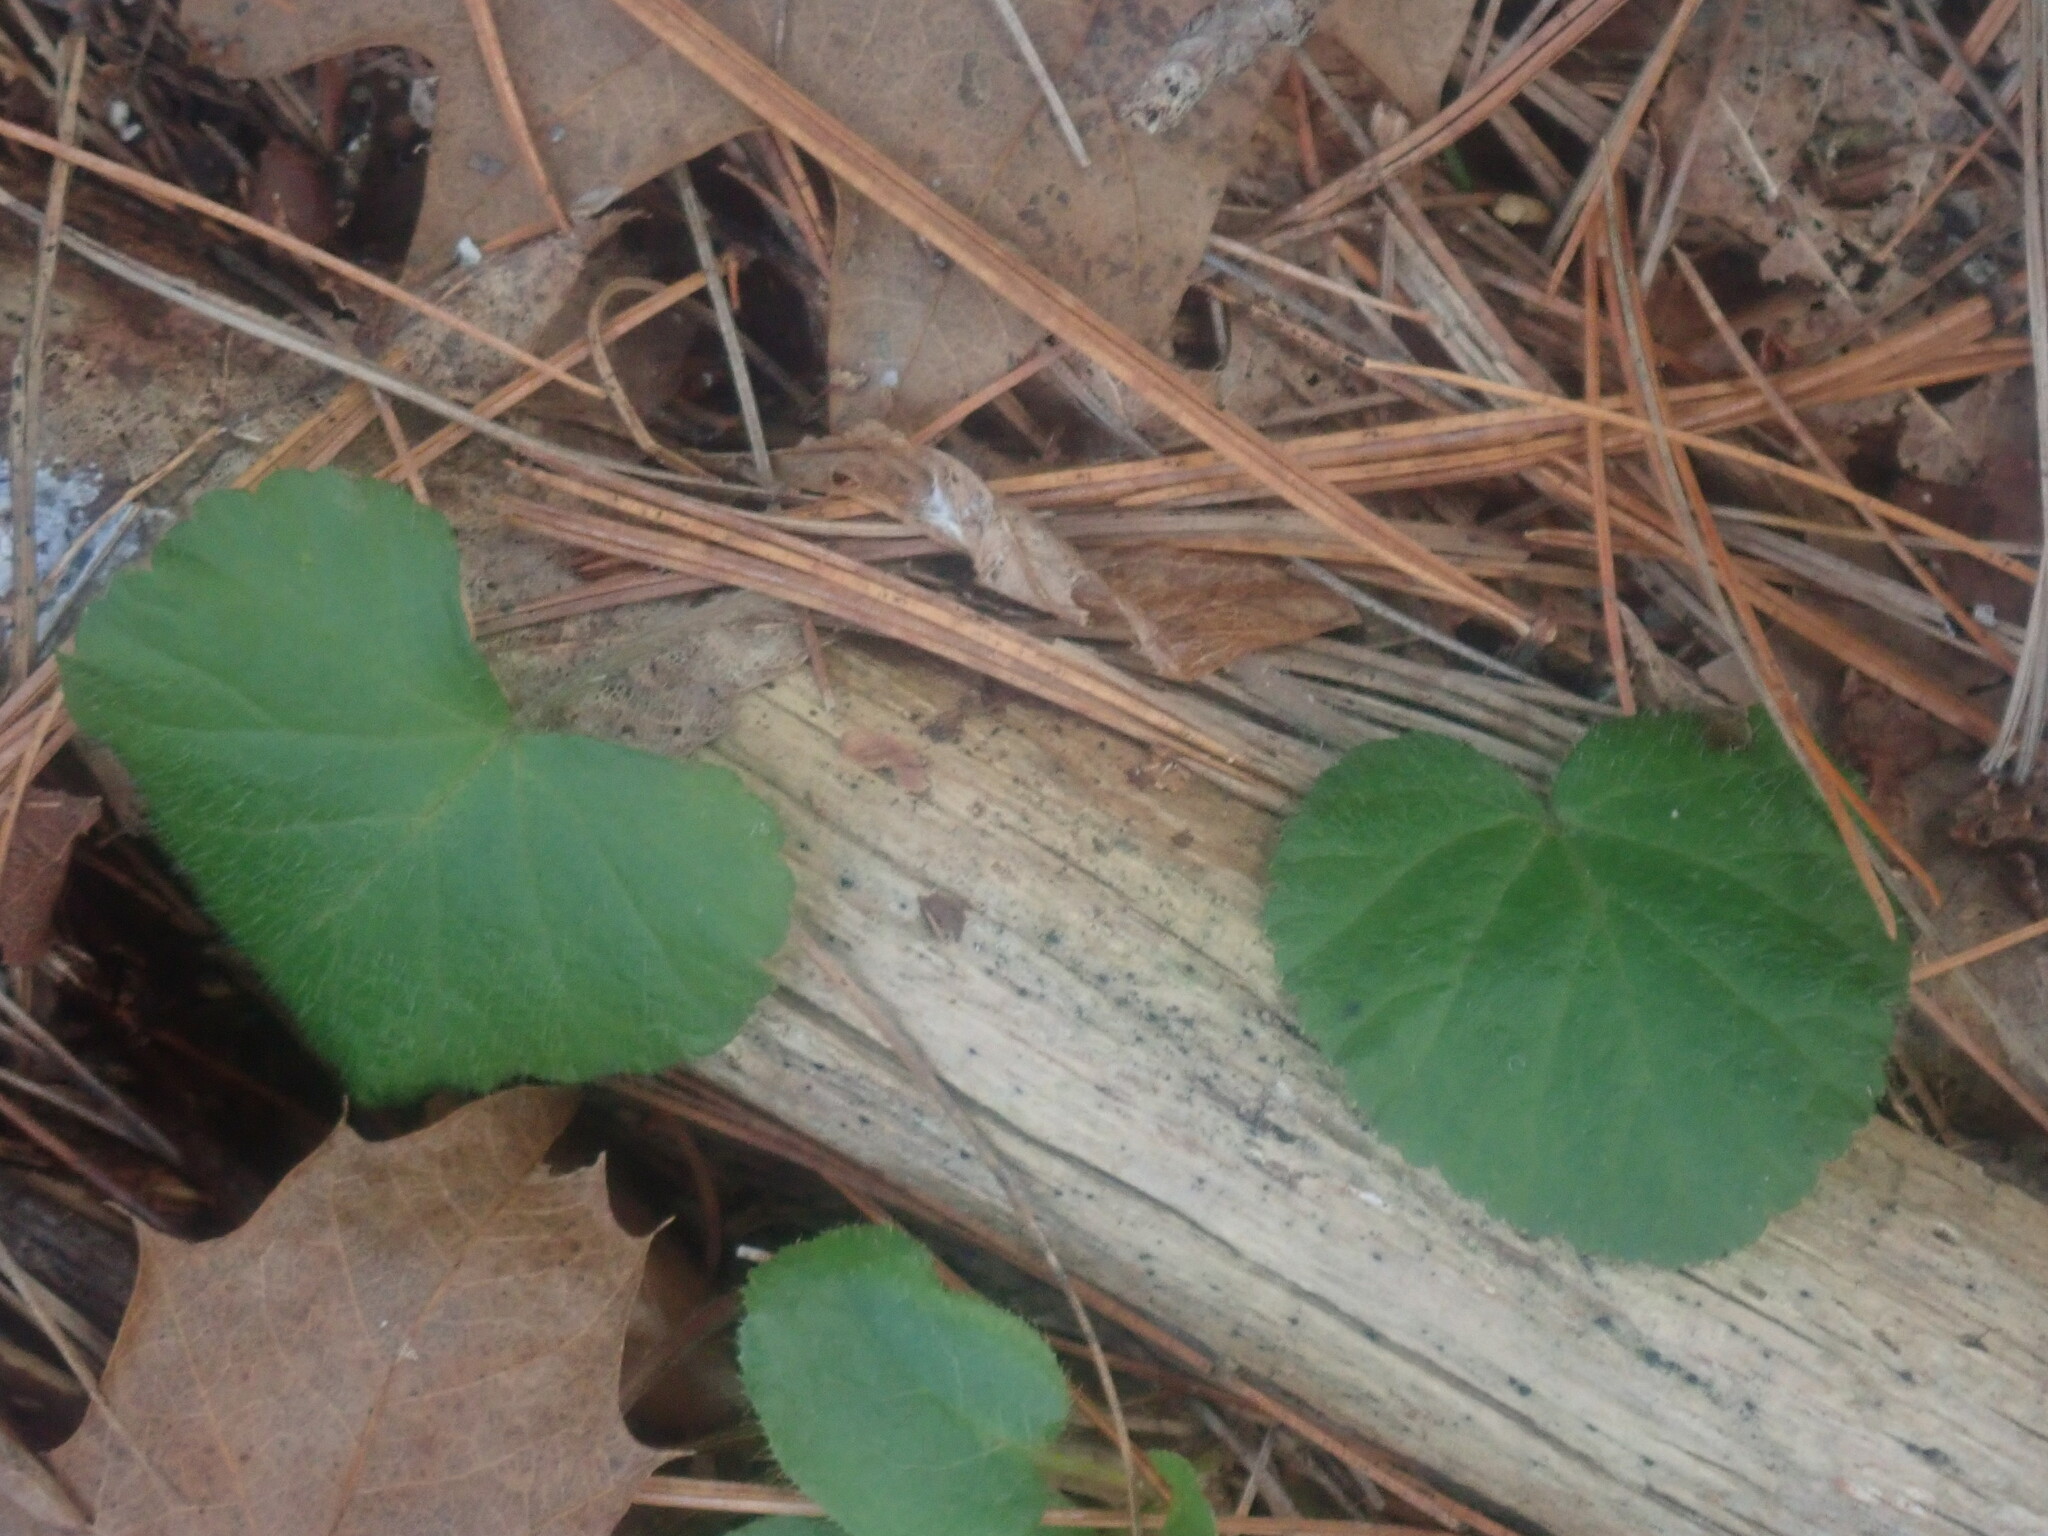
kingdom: Plantae
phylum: Tracheophyta
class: Magnoliopsida
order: Rosales
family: Rosaceae
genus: Dalibarda
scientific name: Dalibarda repens
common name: Dewdrop
